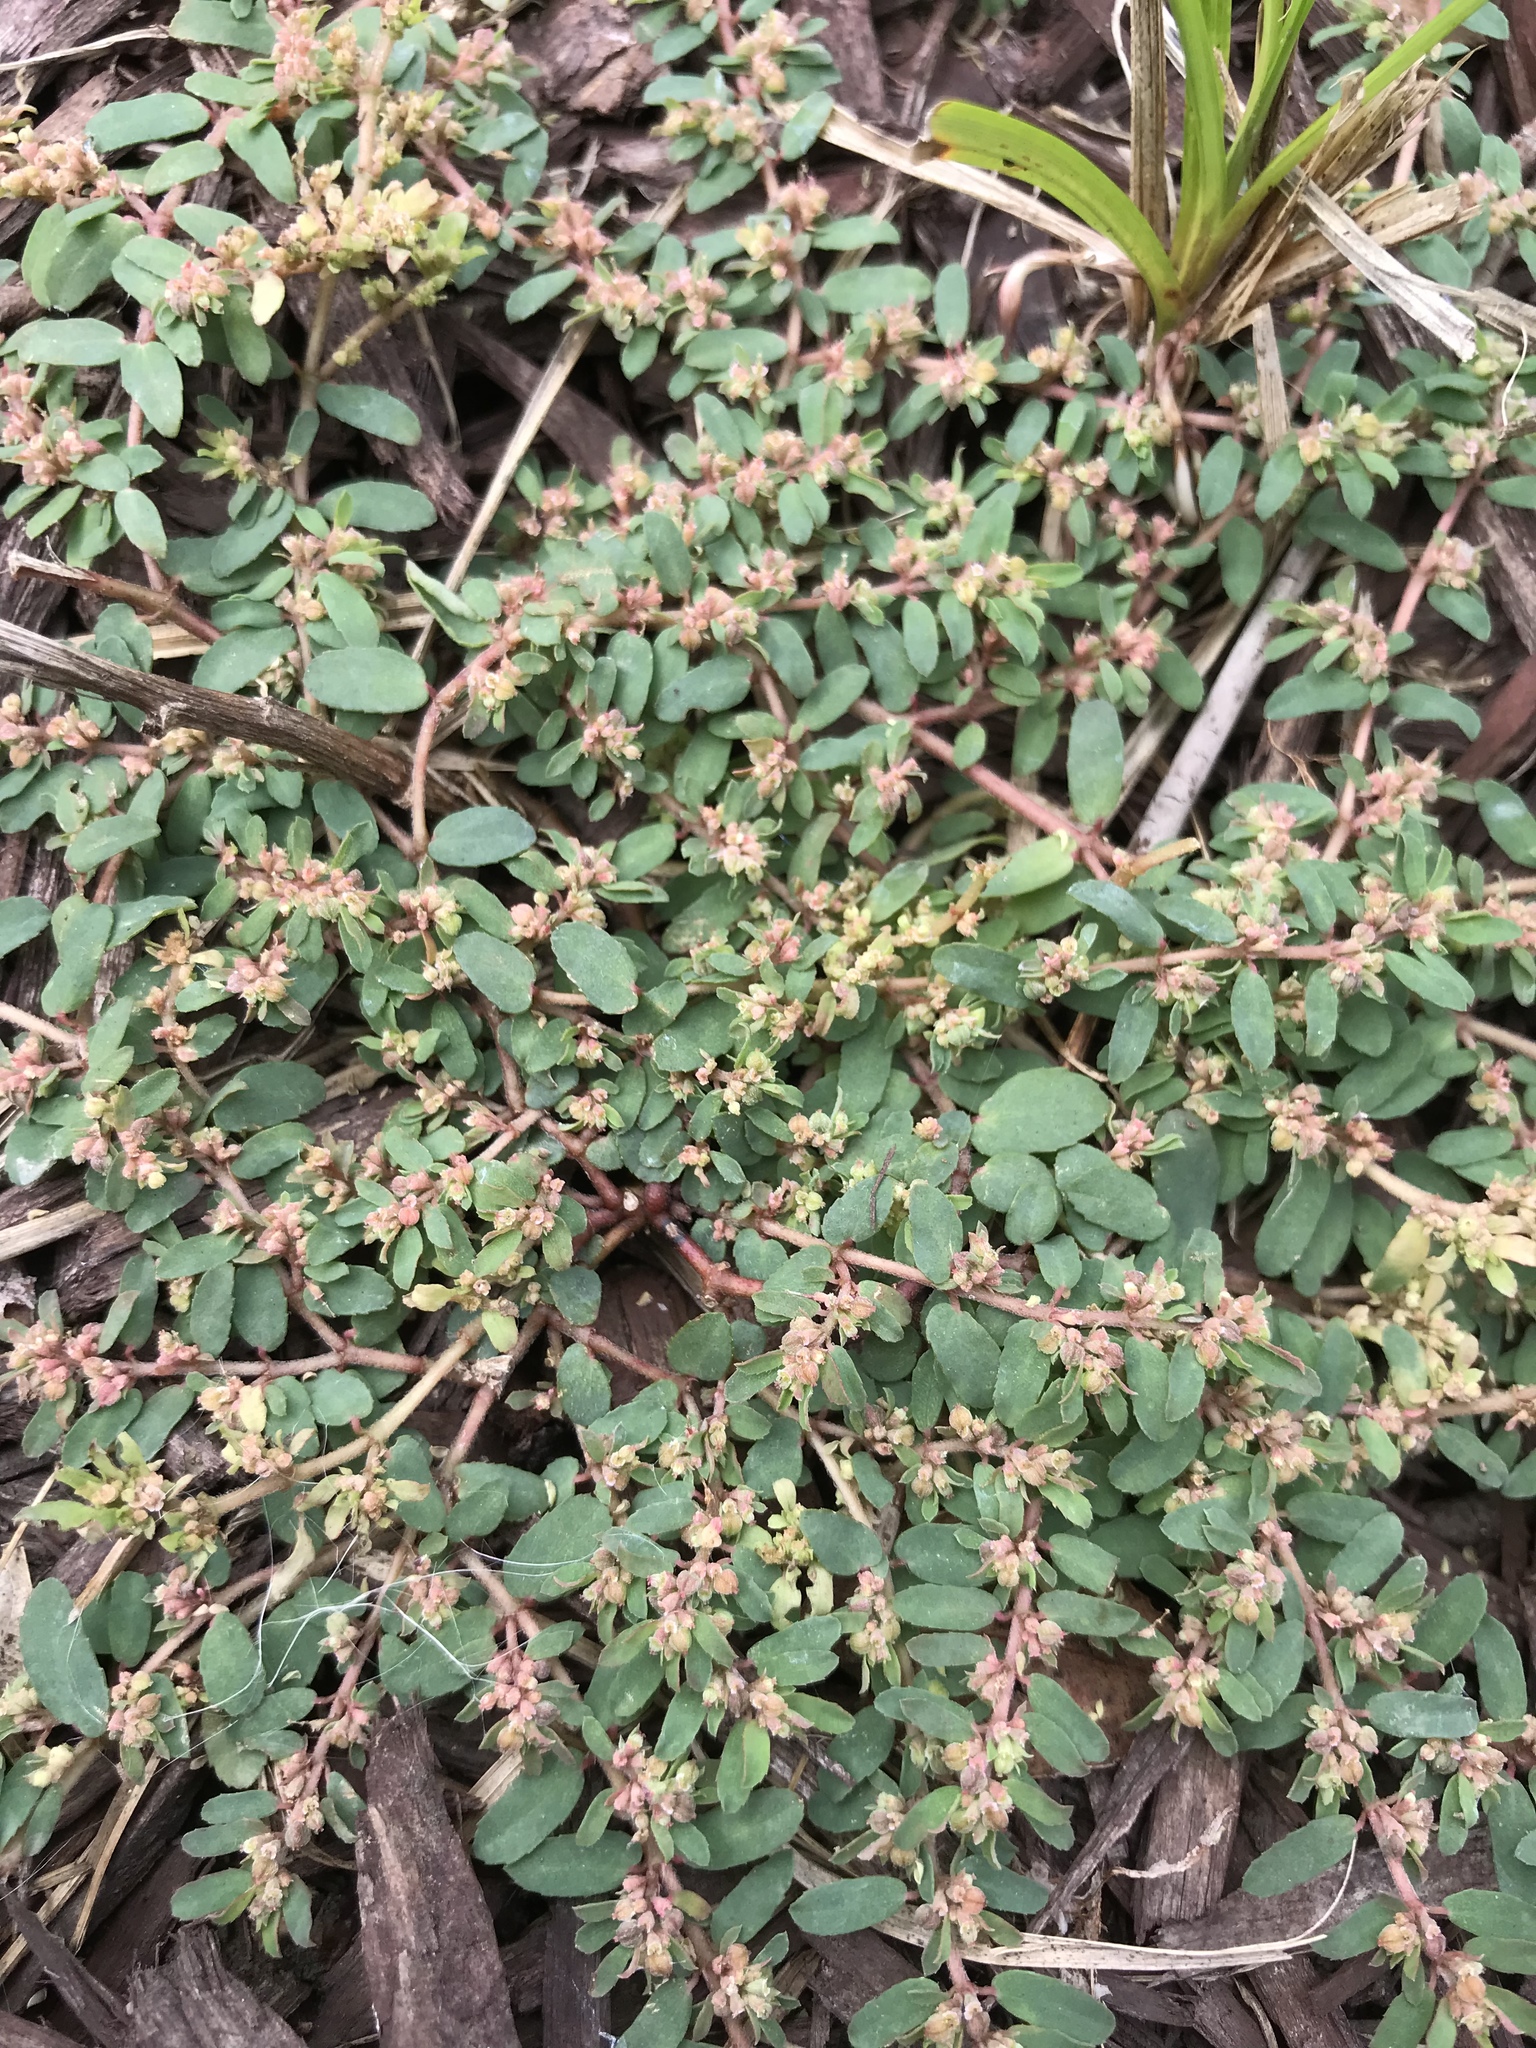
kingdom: Plantae
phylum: Tracheophyta
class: Magnoliopsida
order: Malpighiales
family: Euphorbiaceae
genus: Euphorbia
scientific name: Euphorbia maculata
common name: Spotted spurge
